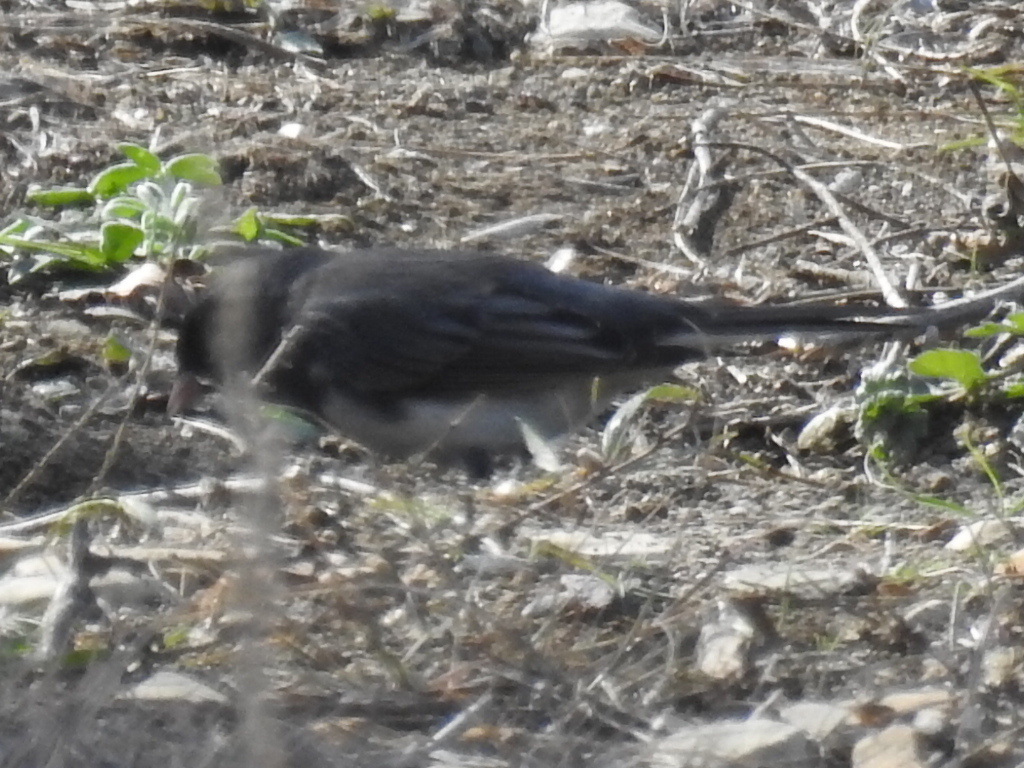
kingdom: Animalia
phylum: Chordata
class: Aves
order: Passeriformes
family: Passerellidae
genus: Junco
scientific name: Junco hyemalis
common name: Dark-eyed junco
